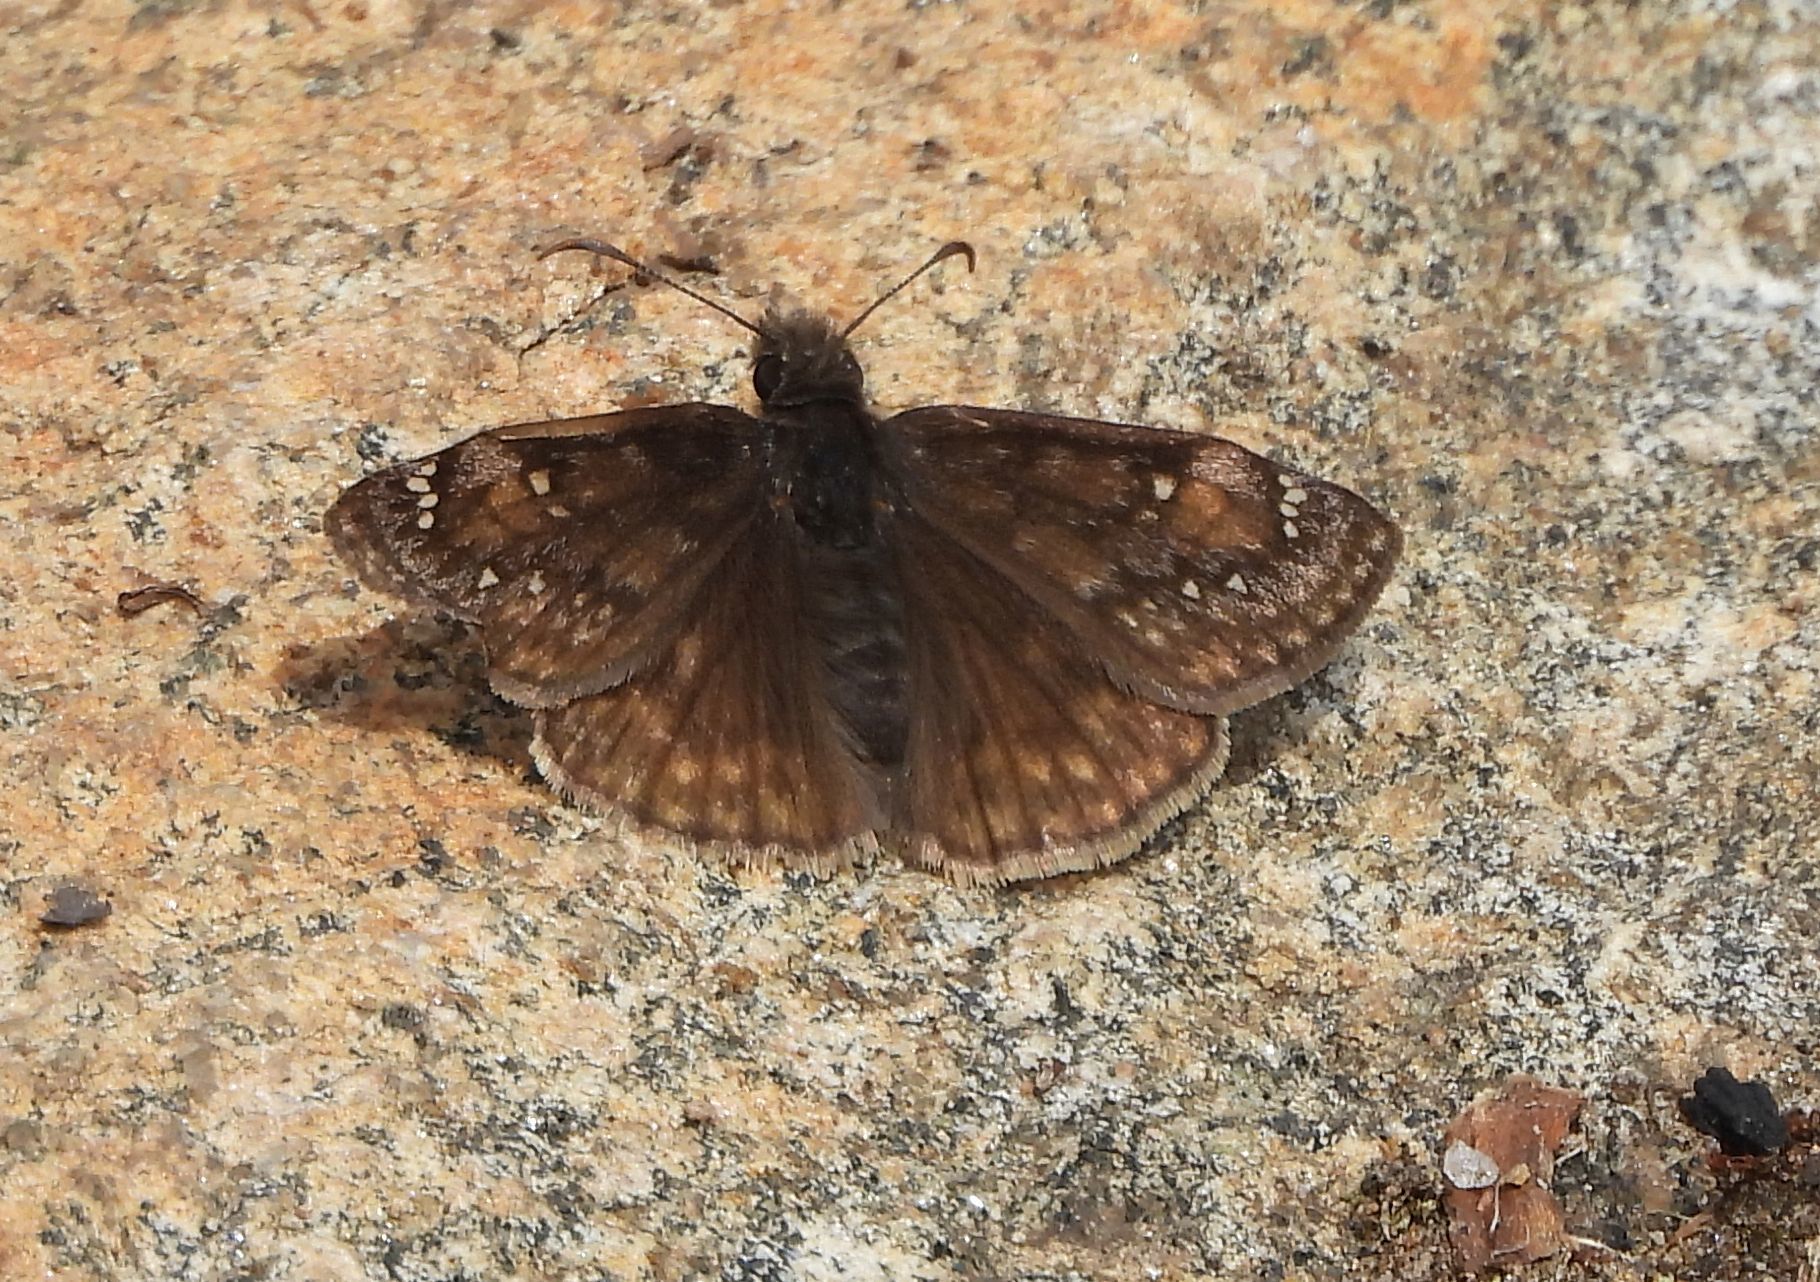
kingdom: Animalia
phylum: Arthropoda
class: Insecta
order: Lepidoptera
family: Hesperiidae
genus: Erynnis
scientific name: Erynnis juvenalis
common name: Juvenal's duskywing
